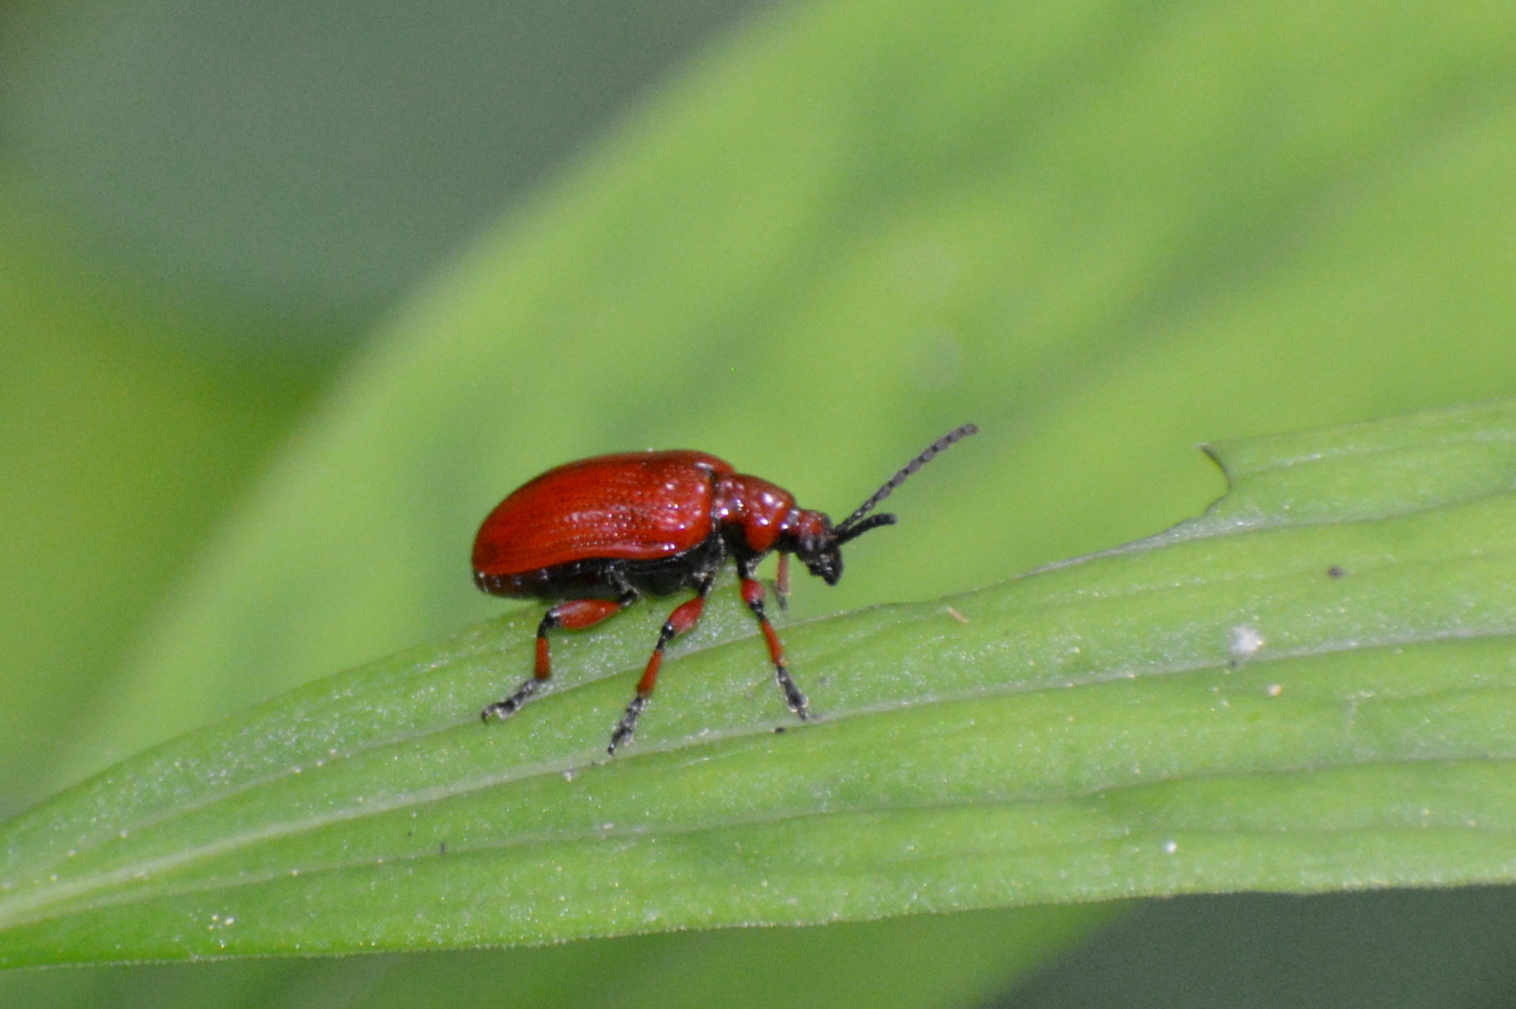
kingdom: Animalia
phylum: Arthropoda
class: Insecta
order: Coleoptera
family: Chrysomelidae
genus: Lilioceris
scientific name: Lilioceris lilii
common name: Lily beetle
